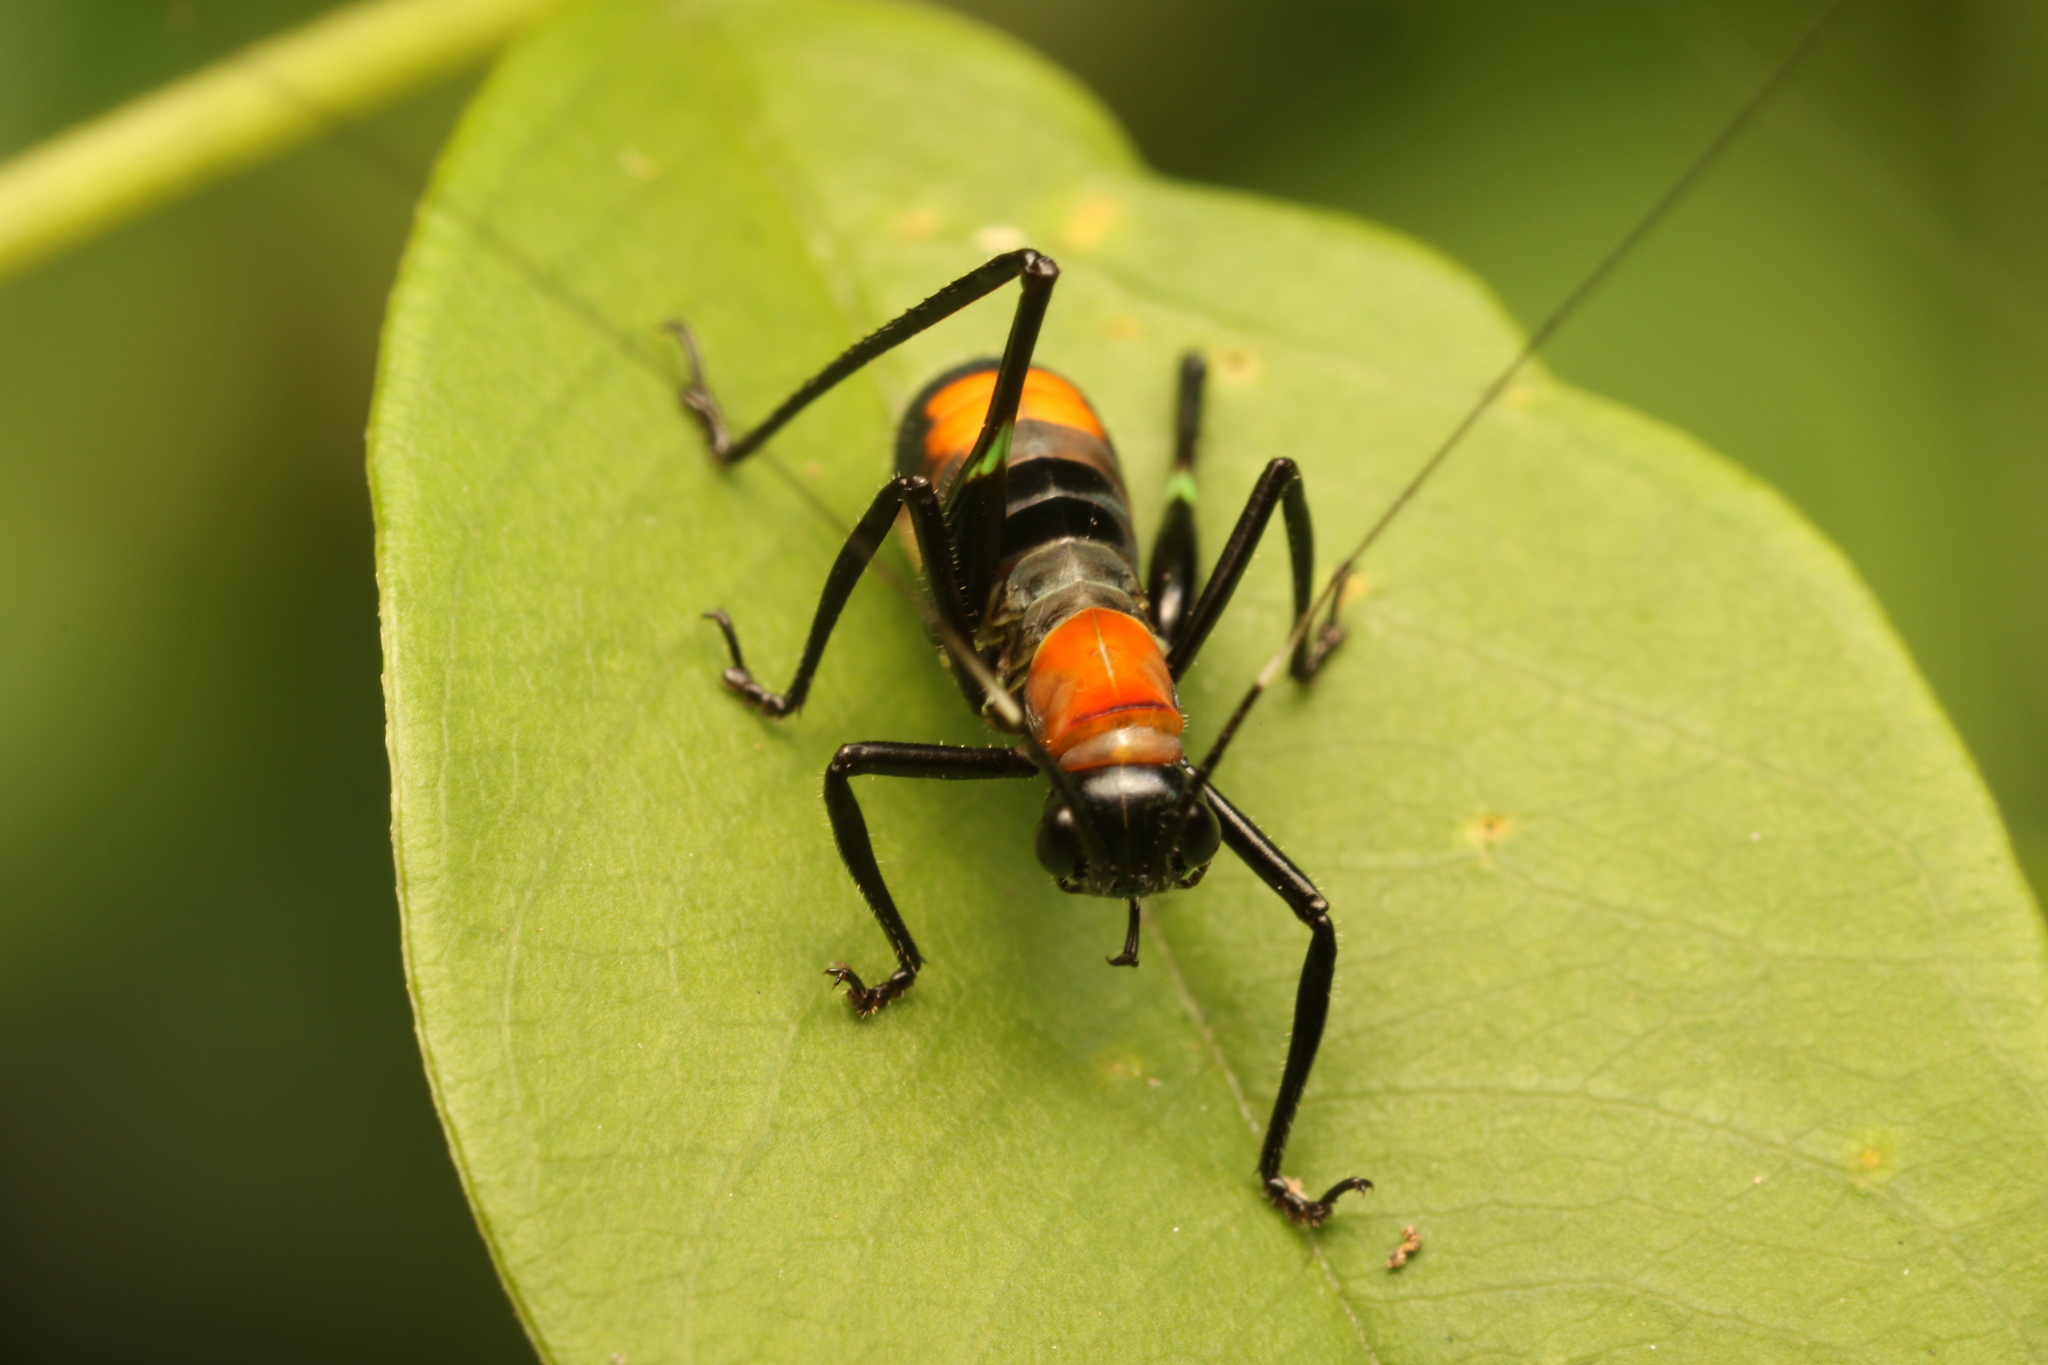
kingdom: Animalia
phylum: Arthropoda
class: Insecta
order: Orthoptera
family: Tettigoniidae
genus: Scaphura
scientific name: Scaphura nigra
